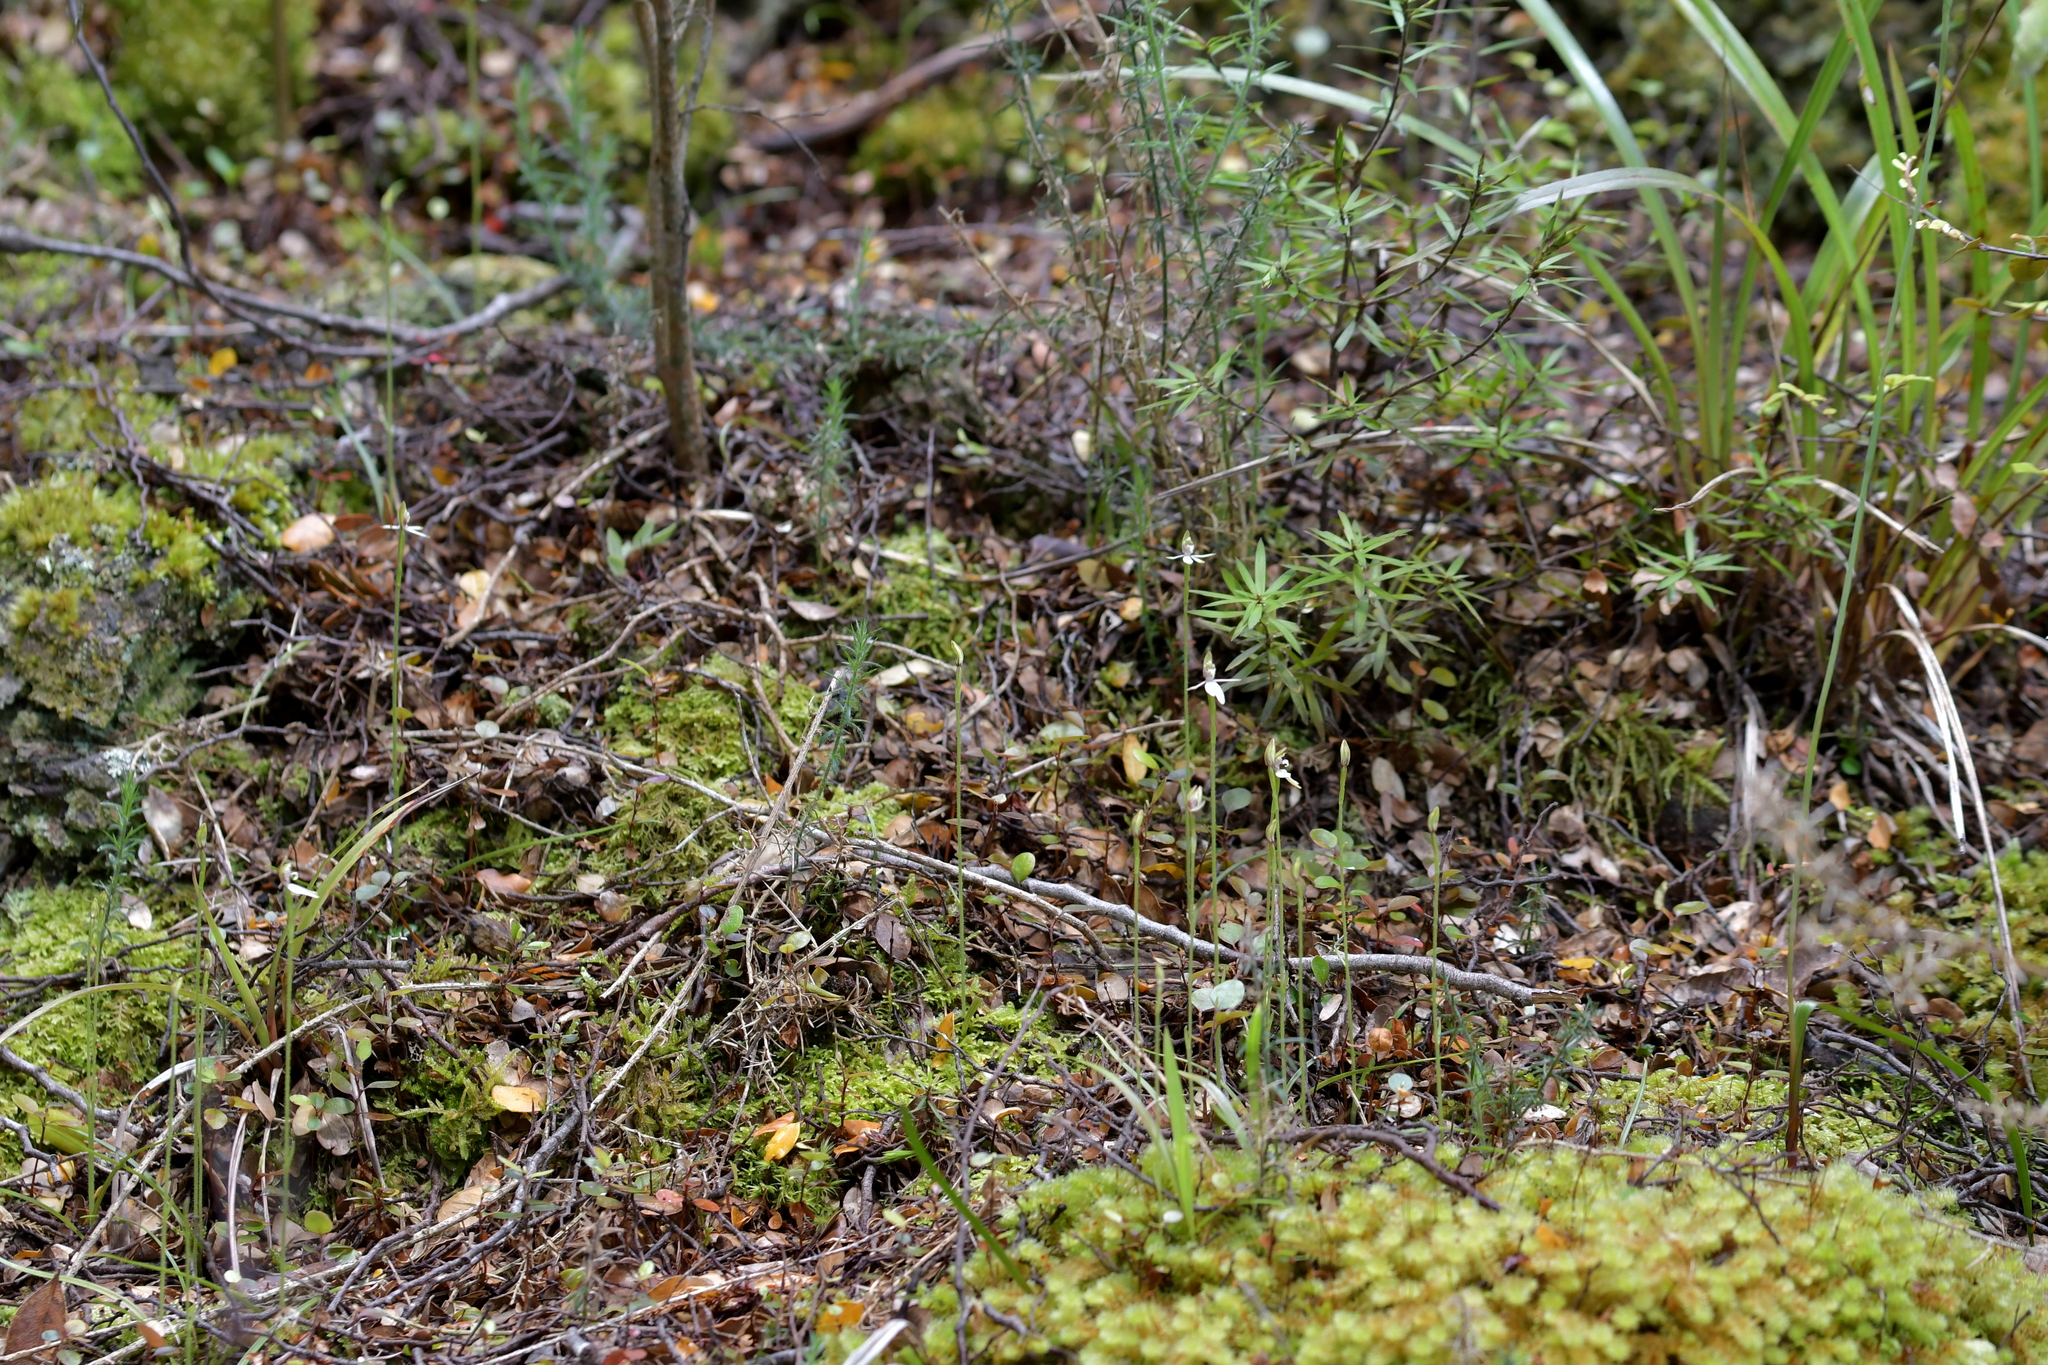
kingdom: Plantae
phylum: Tracheophyta
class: Liliopsida
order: Asparagales
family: Orchidaceae
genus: Caladenia
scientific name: Caladenia chlorostyla
